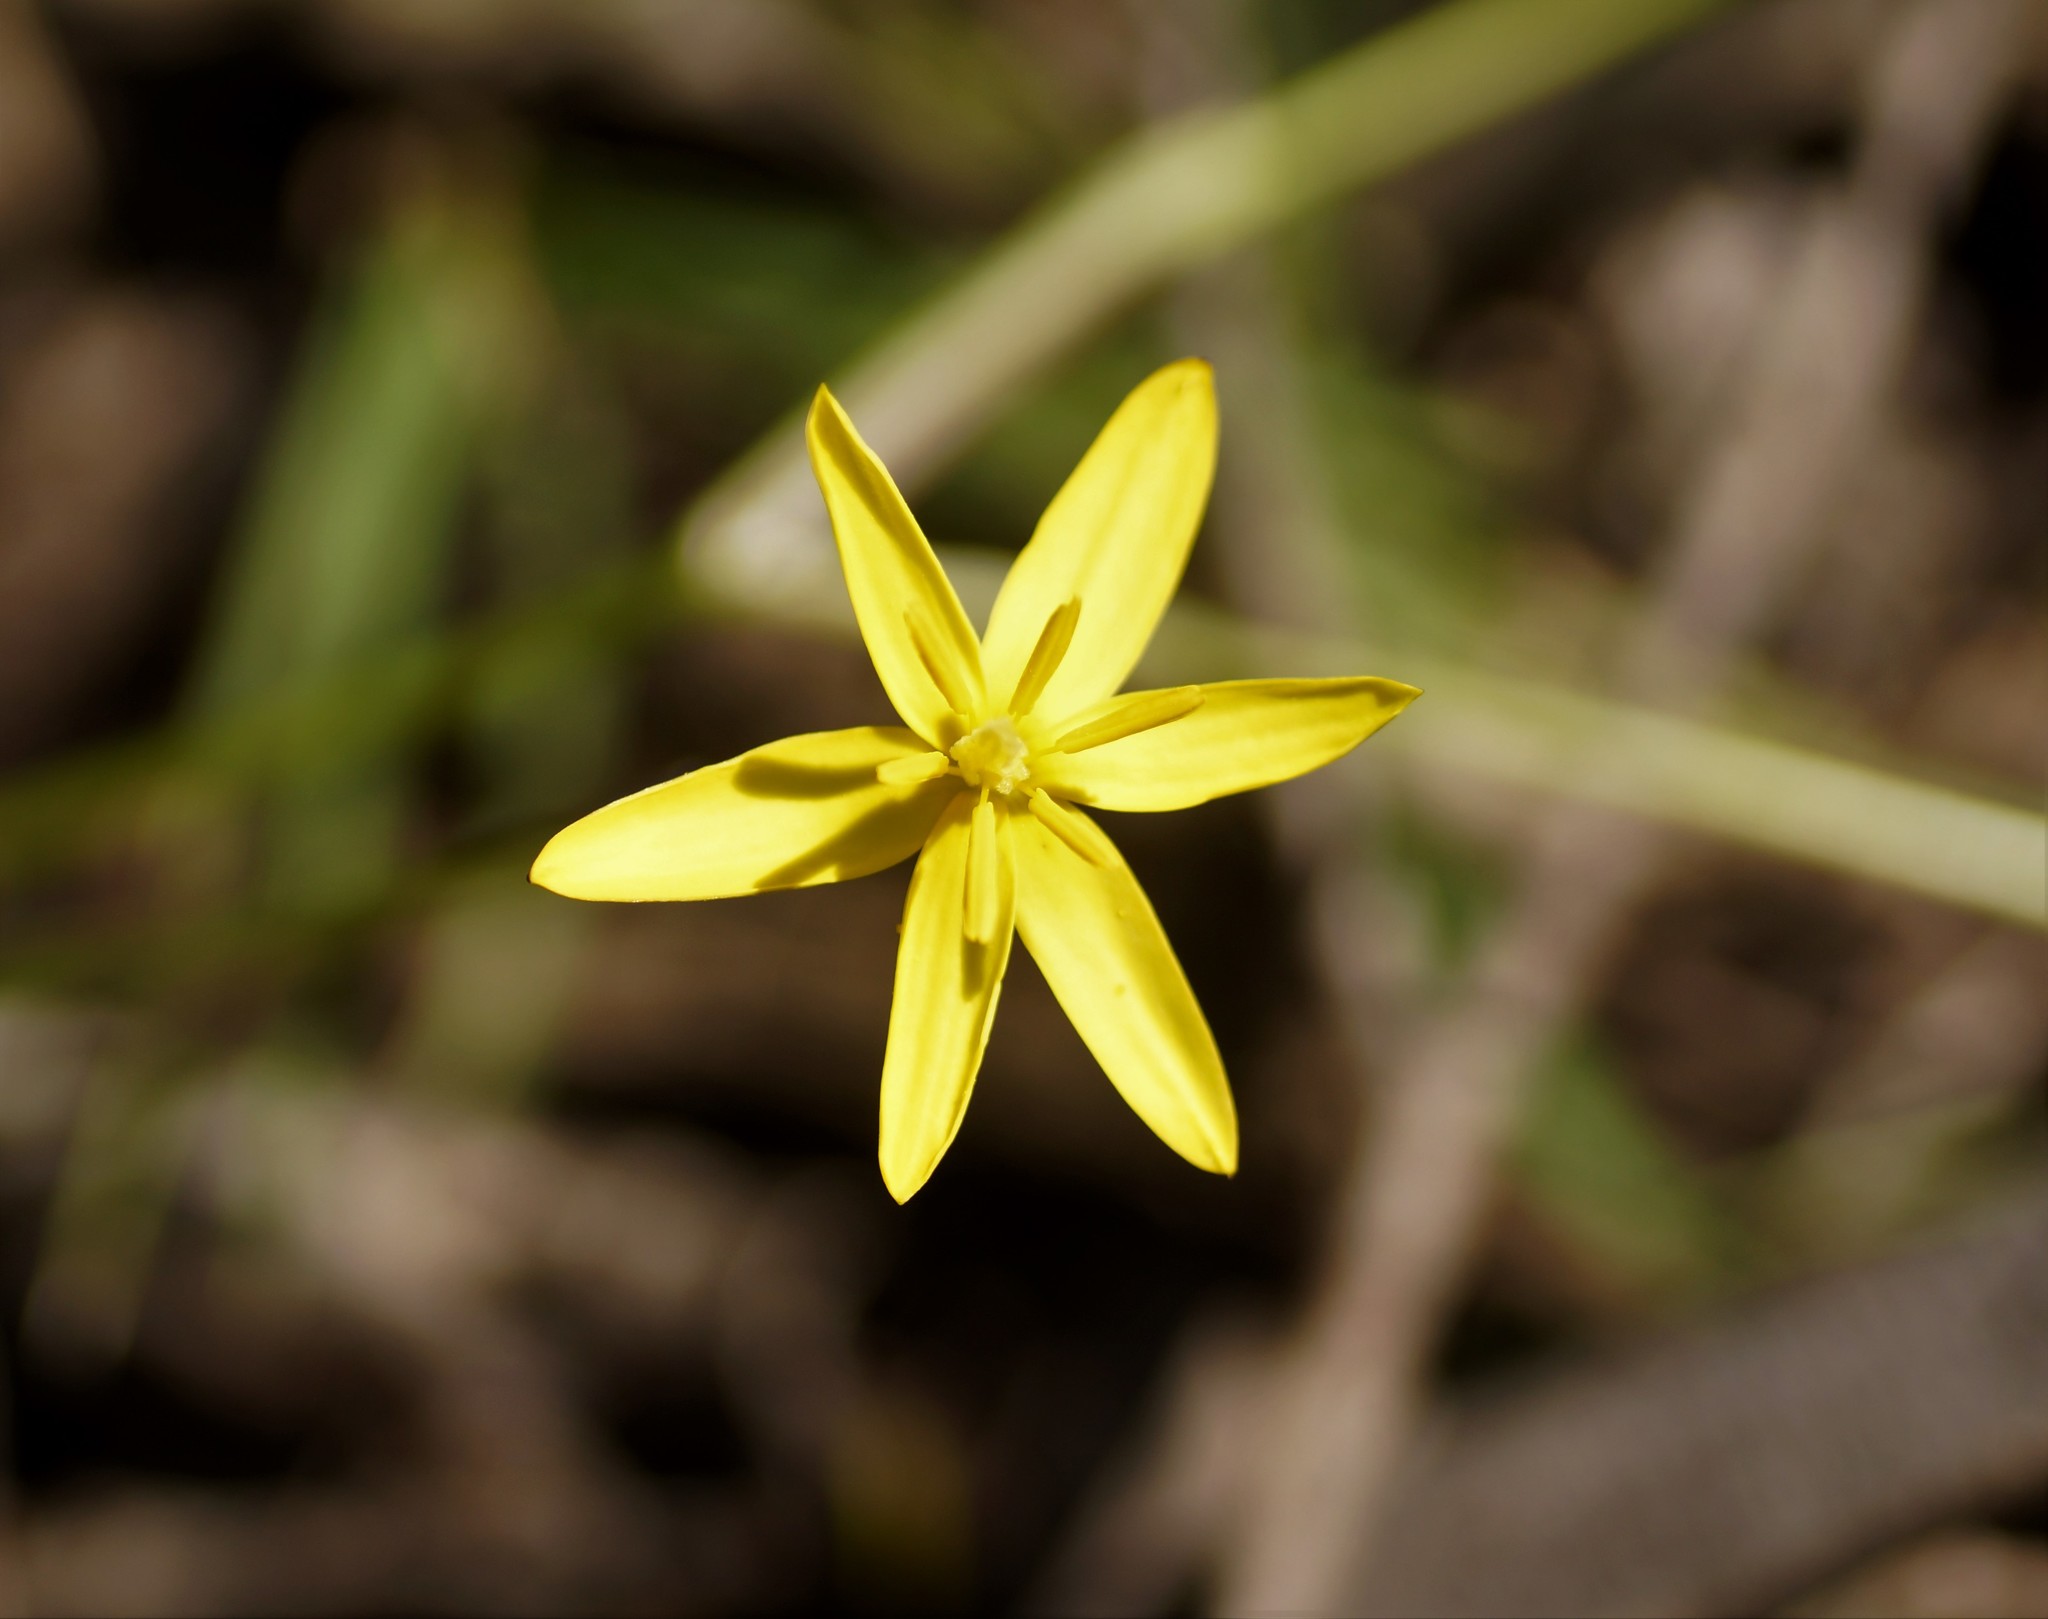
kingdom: Plantae
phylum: Tracheophyta
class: Liliopsida
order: Asparagales
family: Hypoxidaceae
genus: Pauridia
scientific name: Pauridia vaginata
